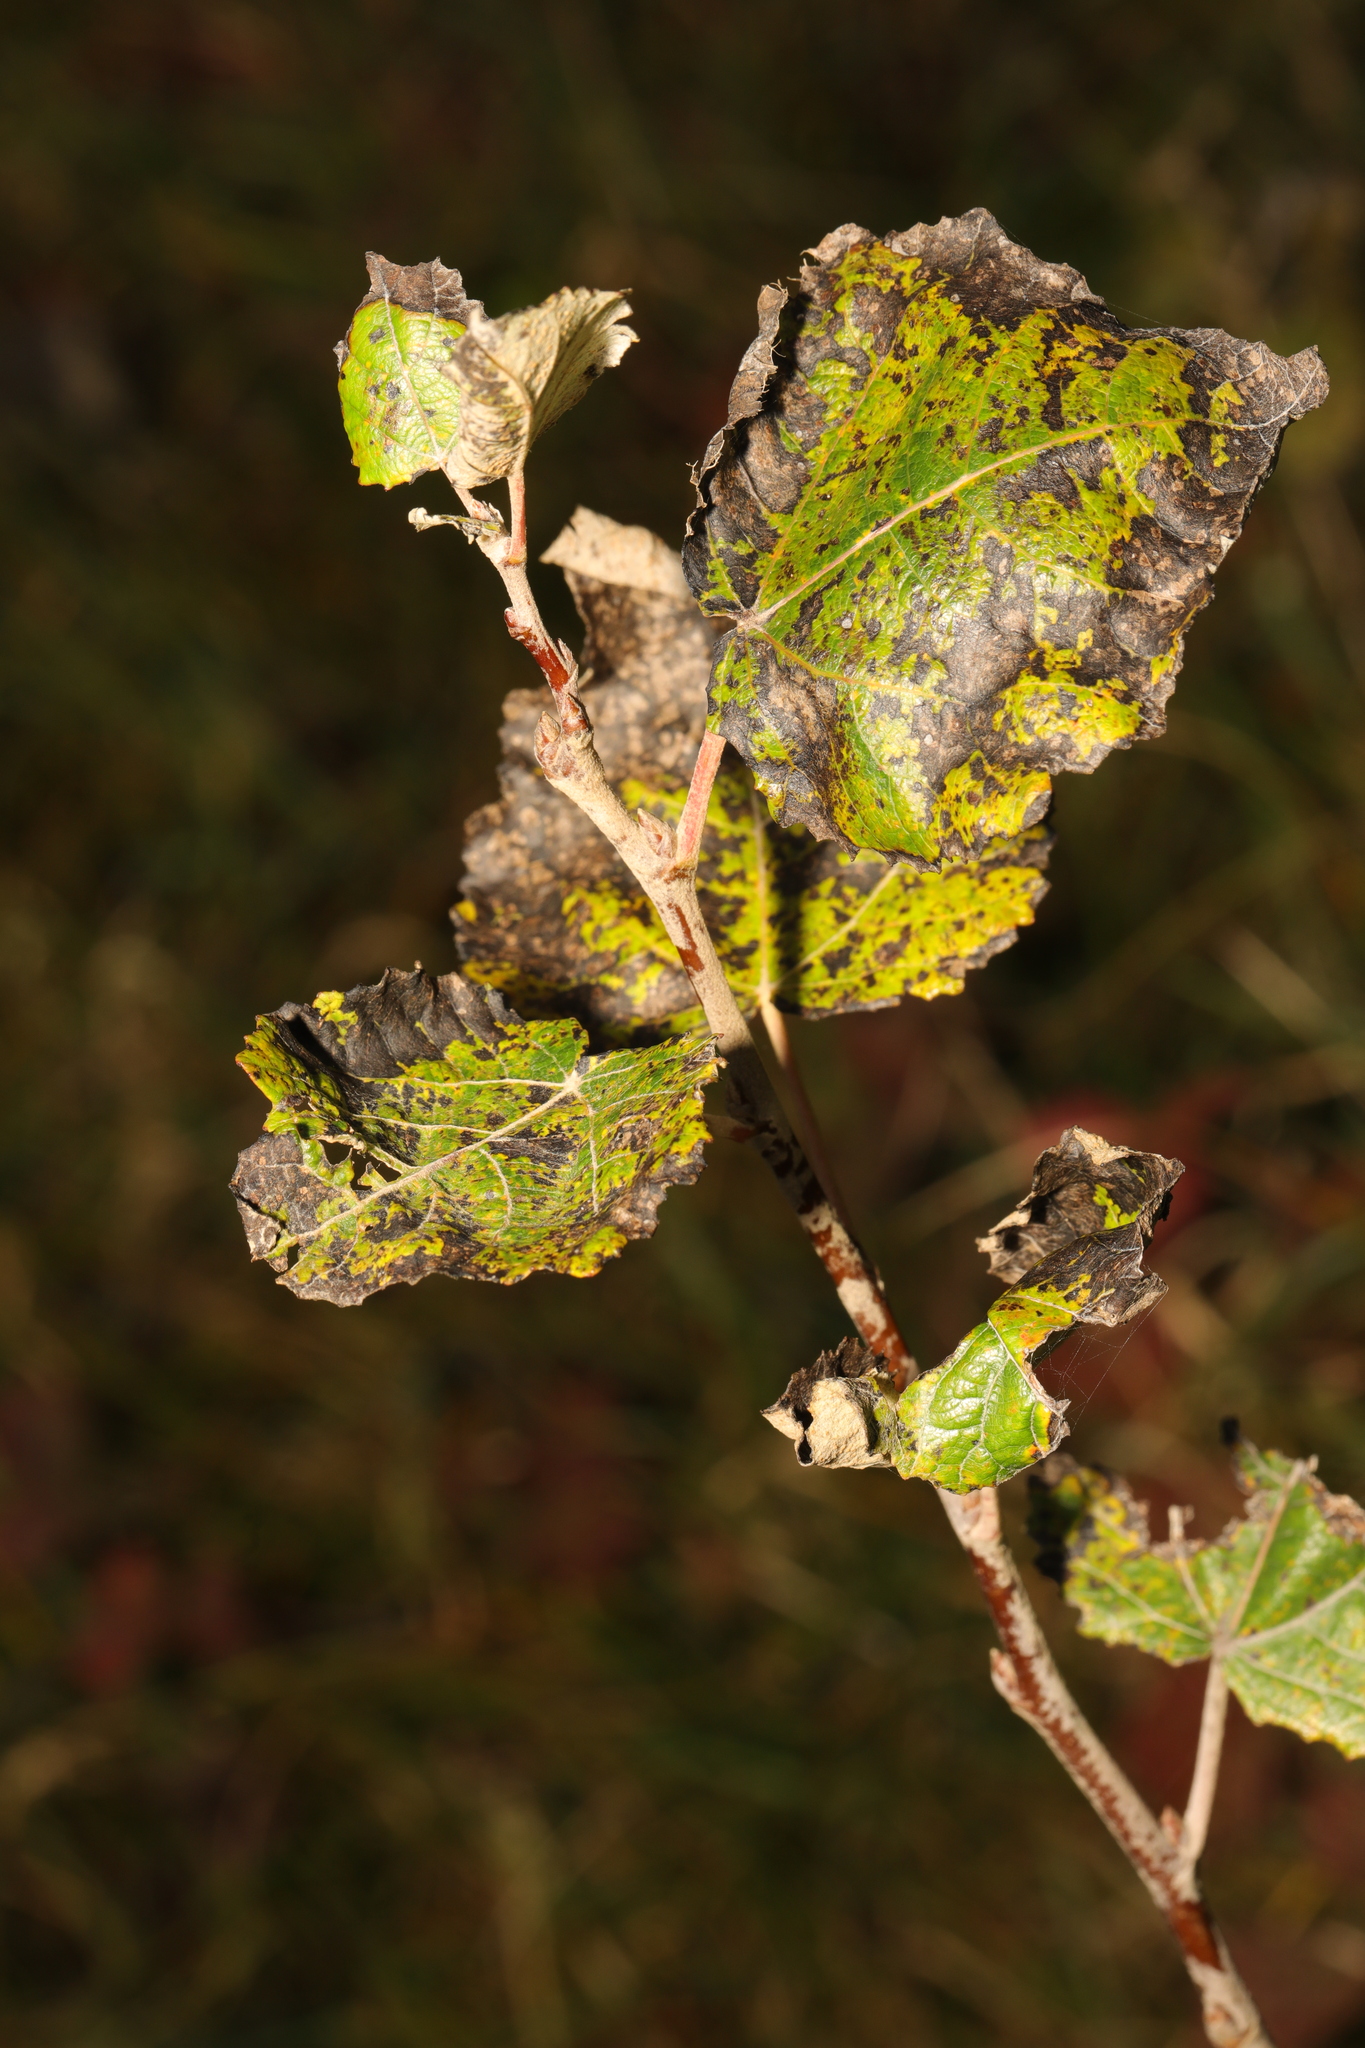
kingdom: Plantae
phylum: Tracheophyta
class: Magnoliopsida
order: Malpighiales
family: Salicaceae
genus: Populus
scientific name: Populus alba
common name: White poplar
